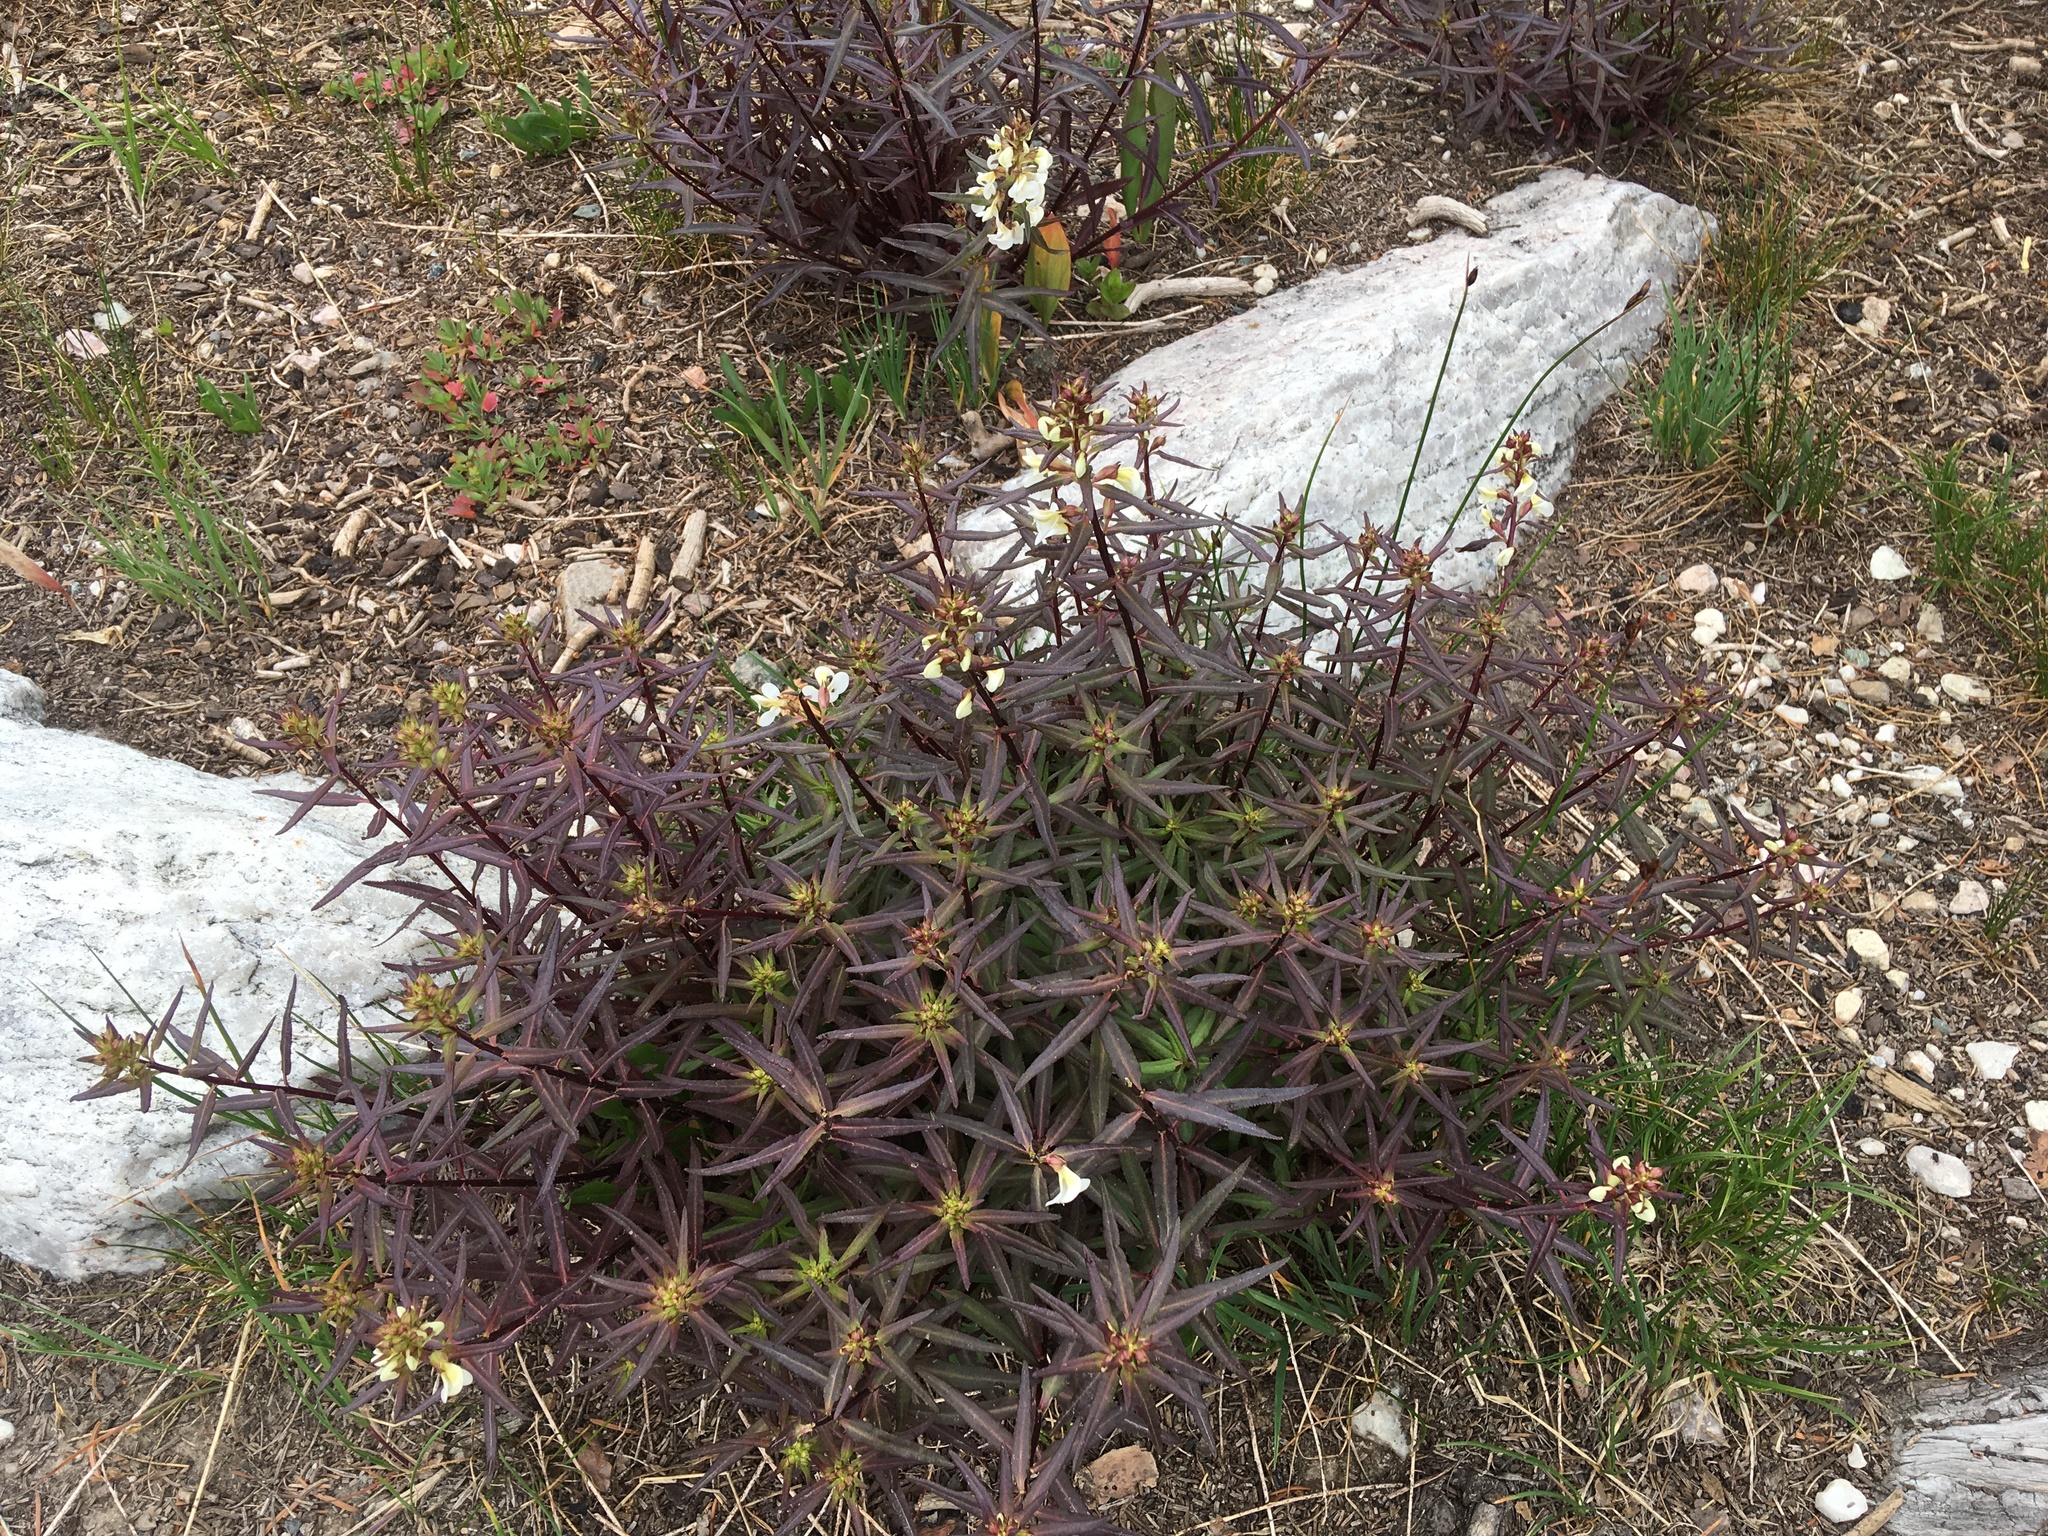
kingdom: Plantae
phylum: Tracheophyta
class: Magnoliopsida
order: Lamiales
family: Orobanchaceae
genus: Pedicularis
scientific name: Pedicularis racemosa
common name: Leafy lousewort
